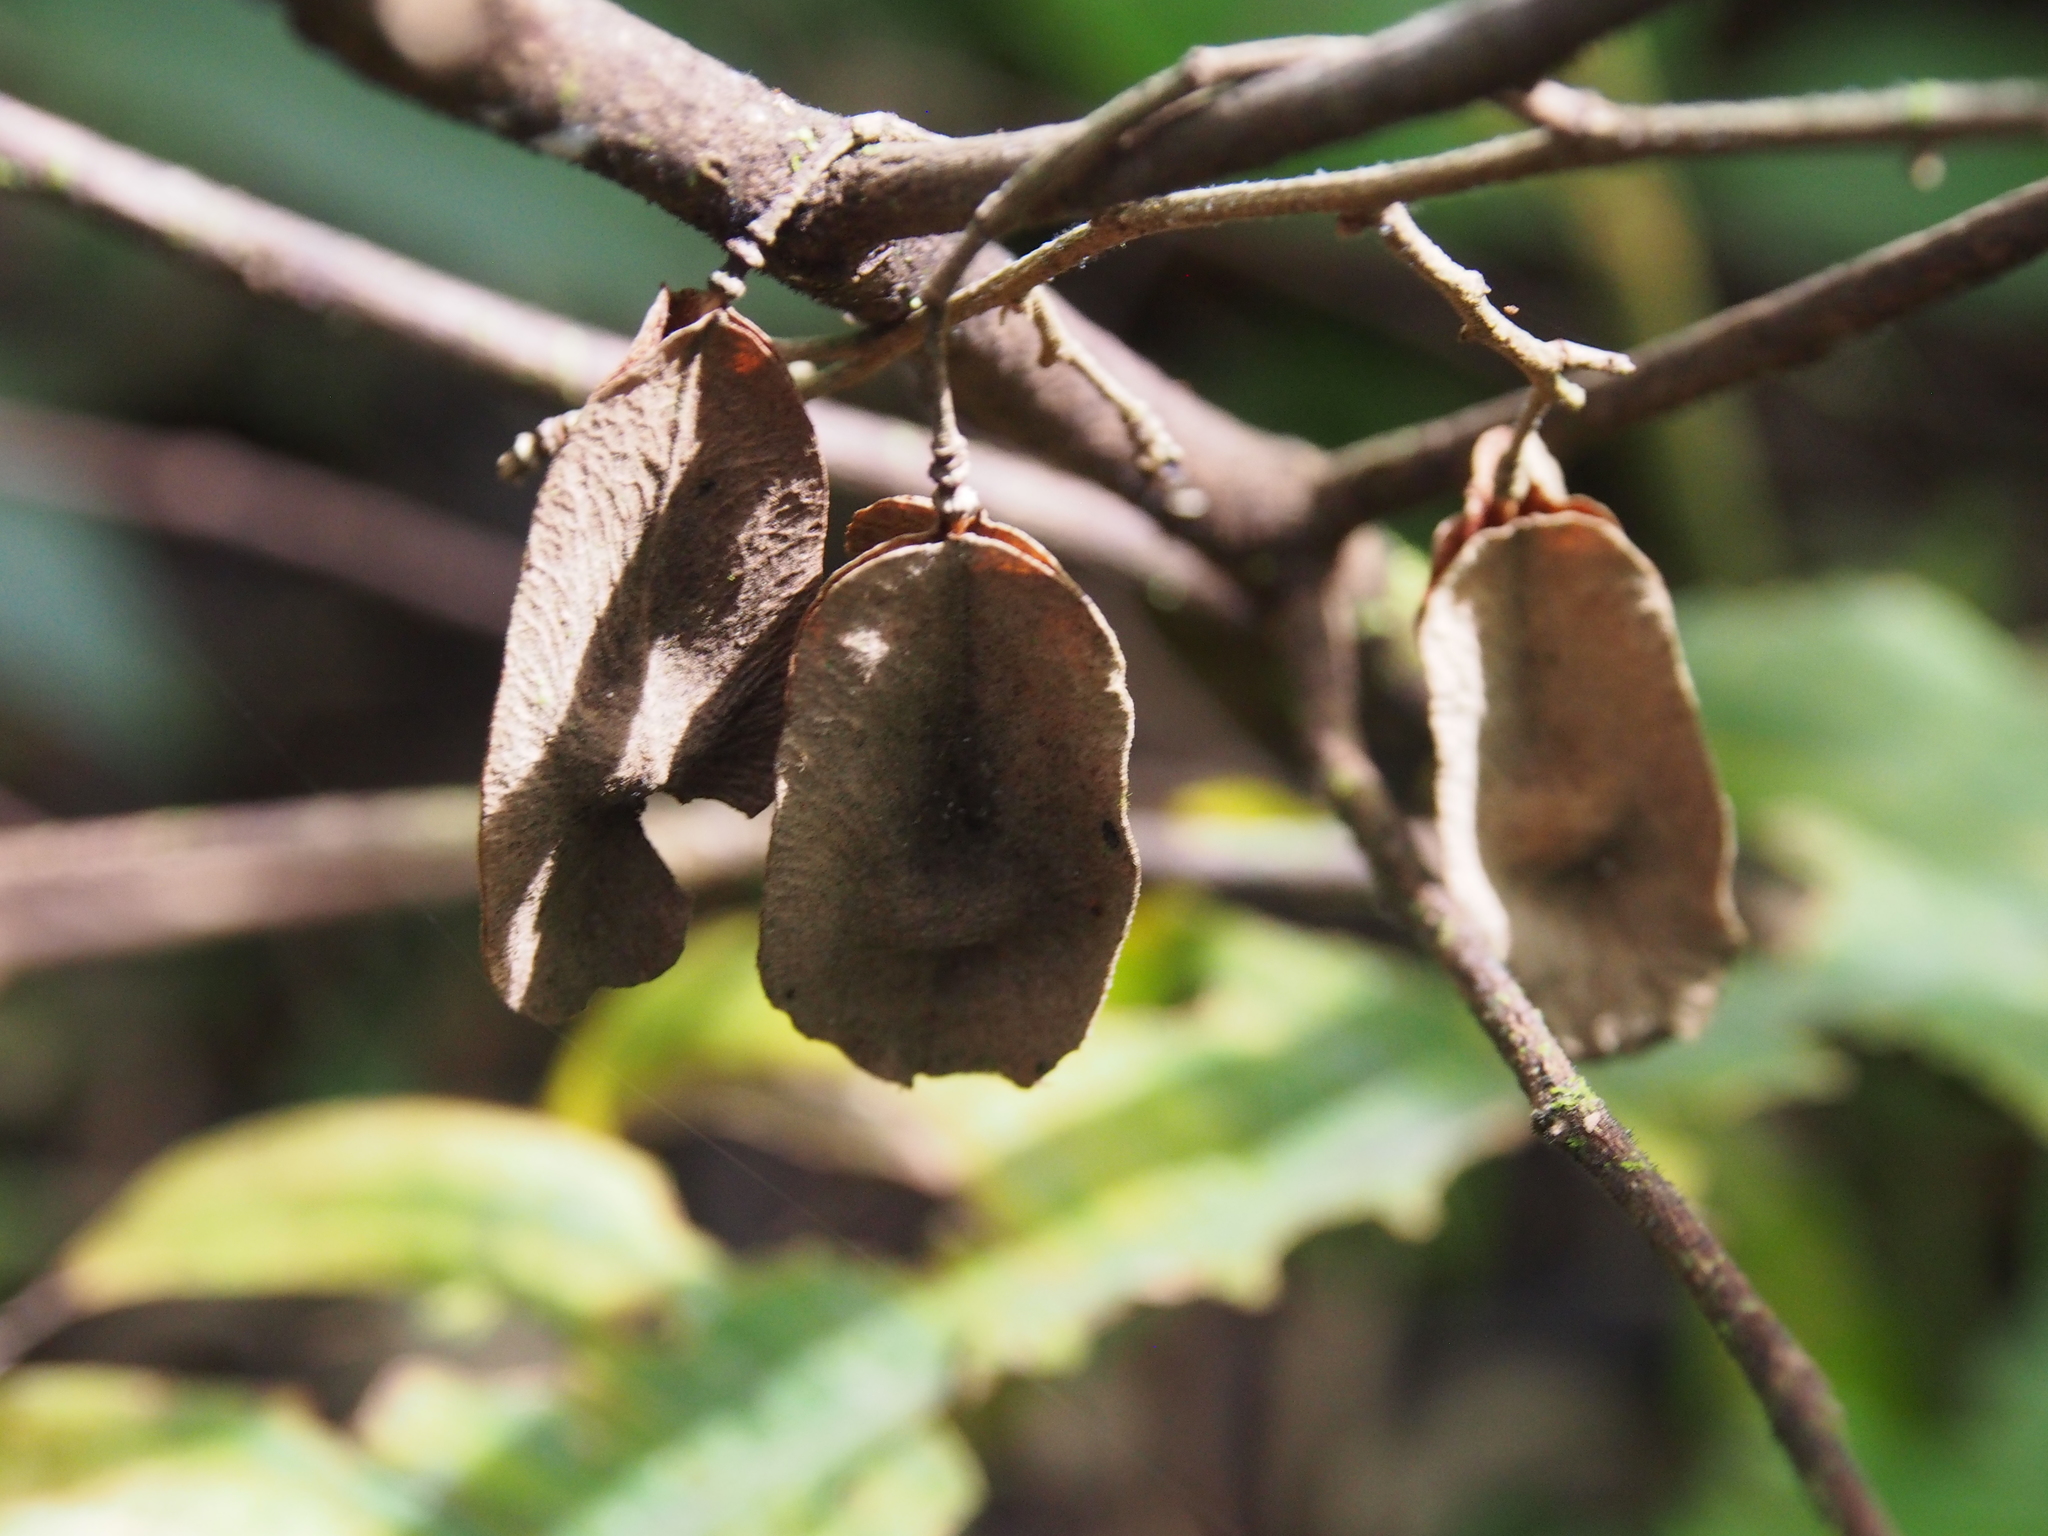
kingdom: Plantae
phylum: Tracheophyta
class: Magnoliopsida
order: Malvales
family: Malvaceae
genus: Goethalsia
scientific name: Goethalsia meiantha
